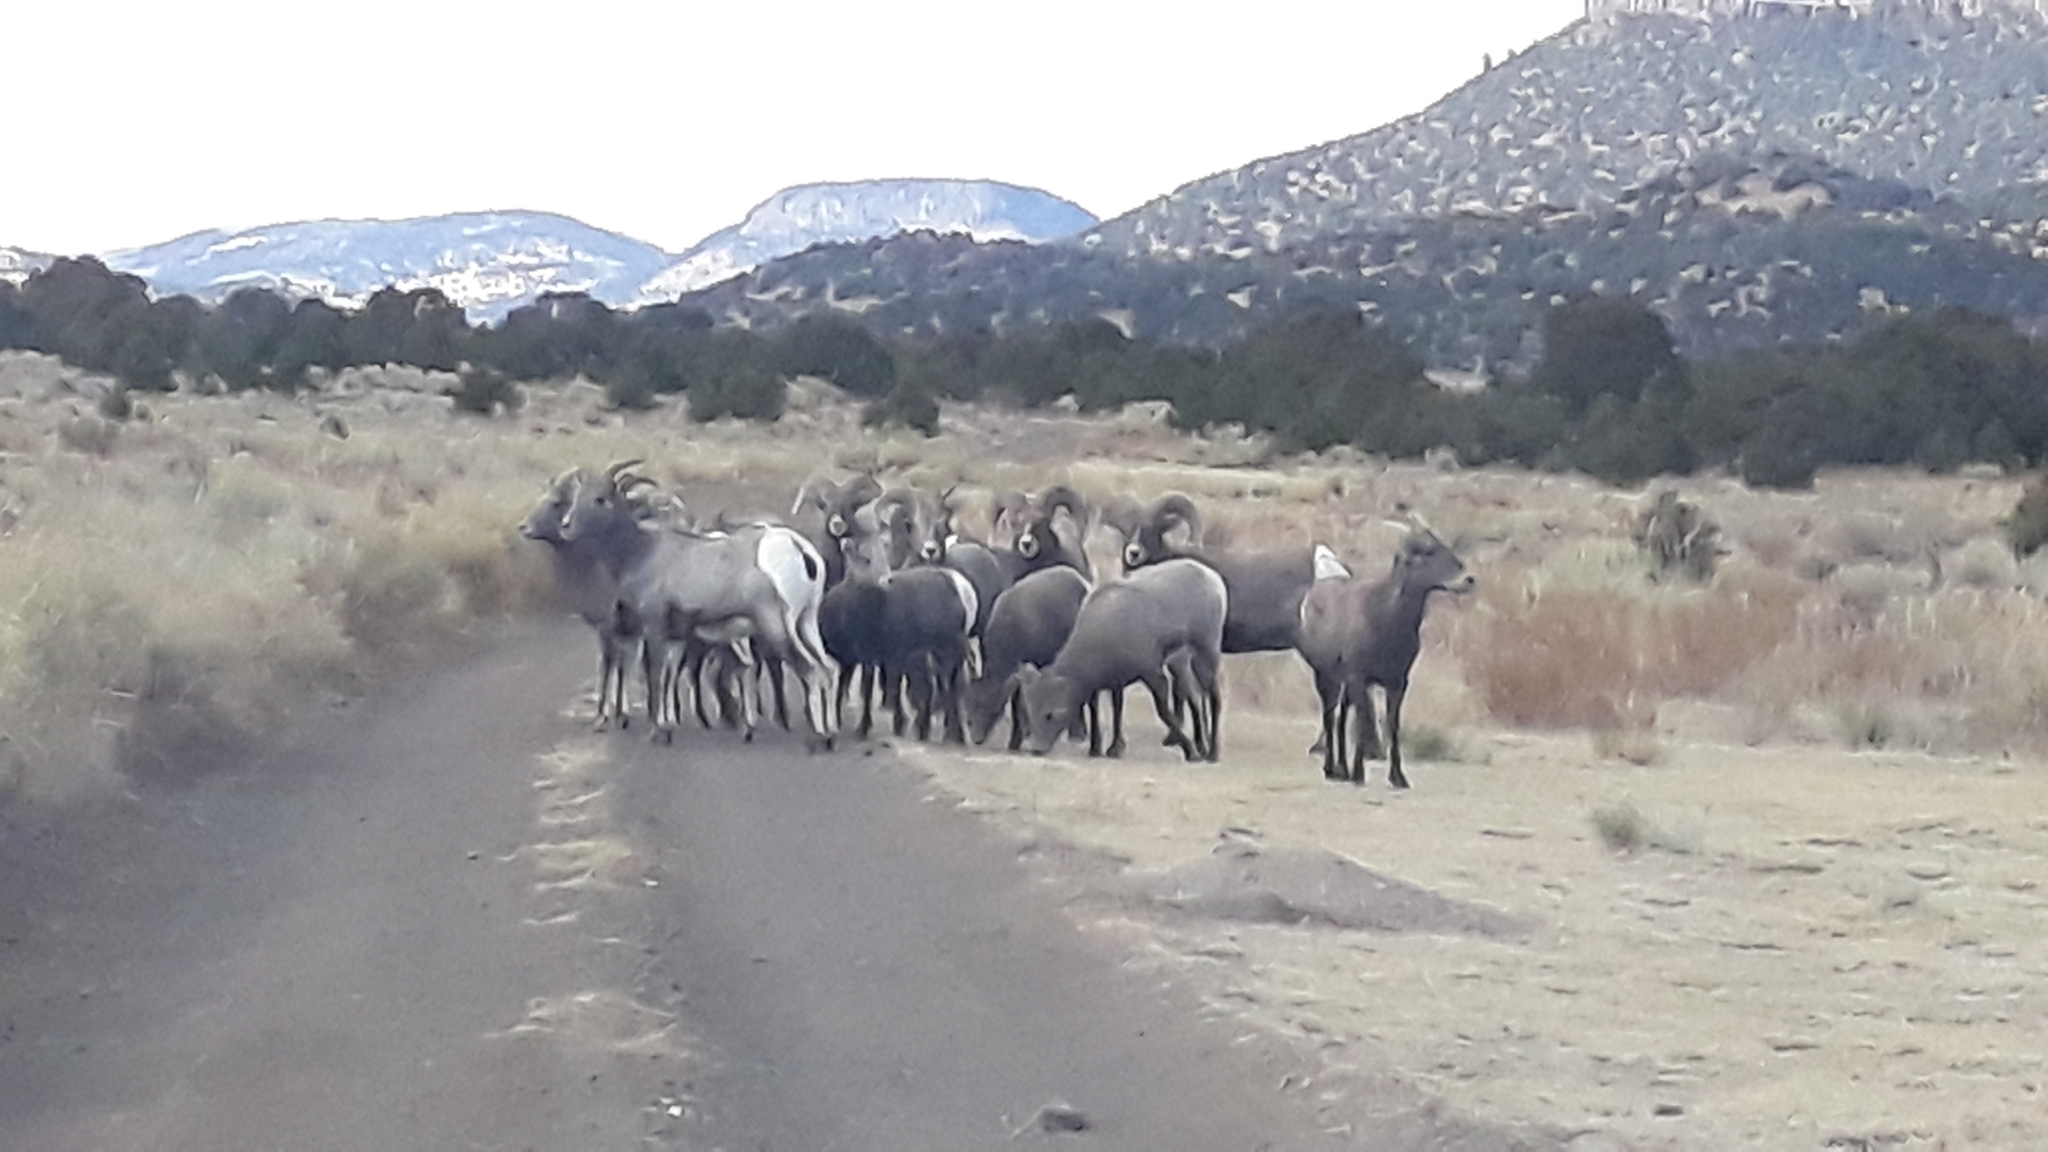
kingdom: Animalia
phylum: Chordata
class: Mammalia
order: Artiodactyla
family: Bovidae
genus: Ovis
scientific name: Ovis canadensis
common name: Bighorn sheep
